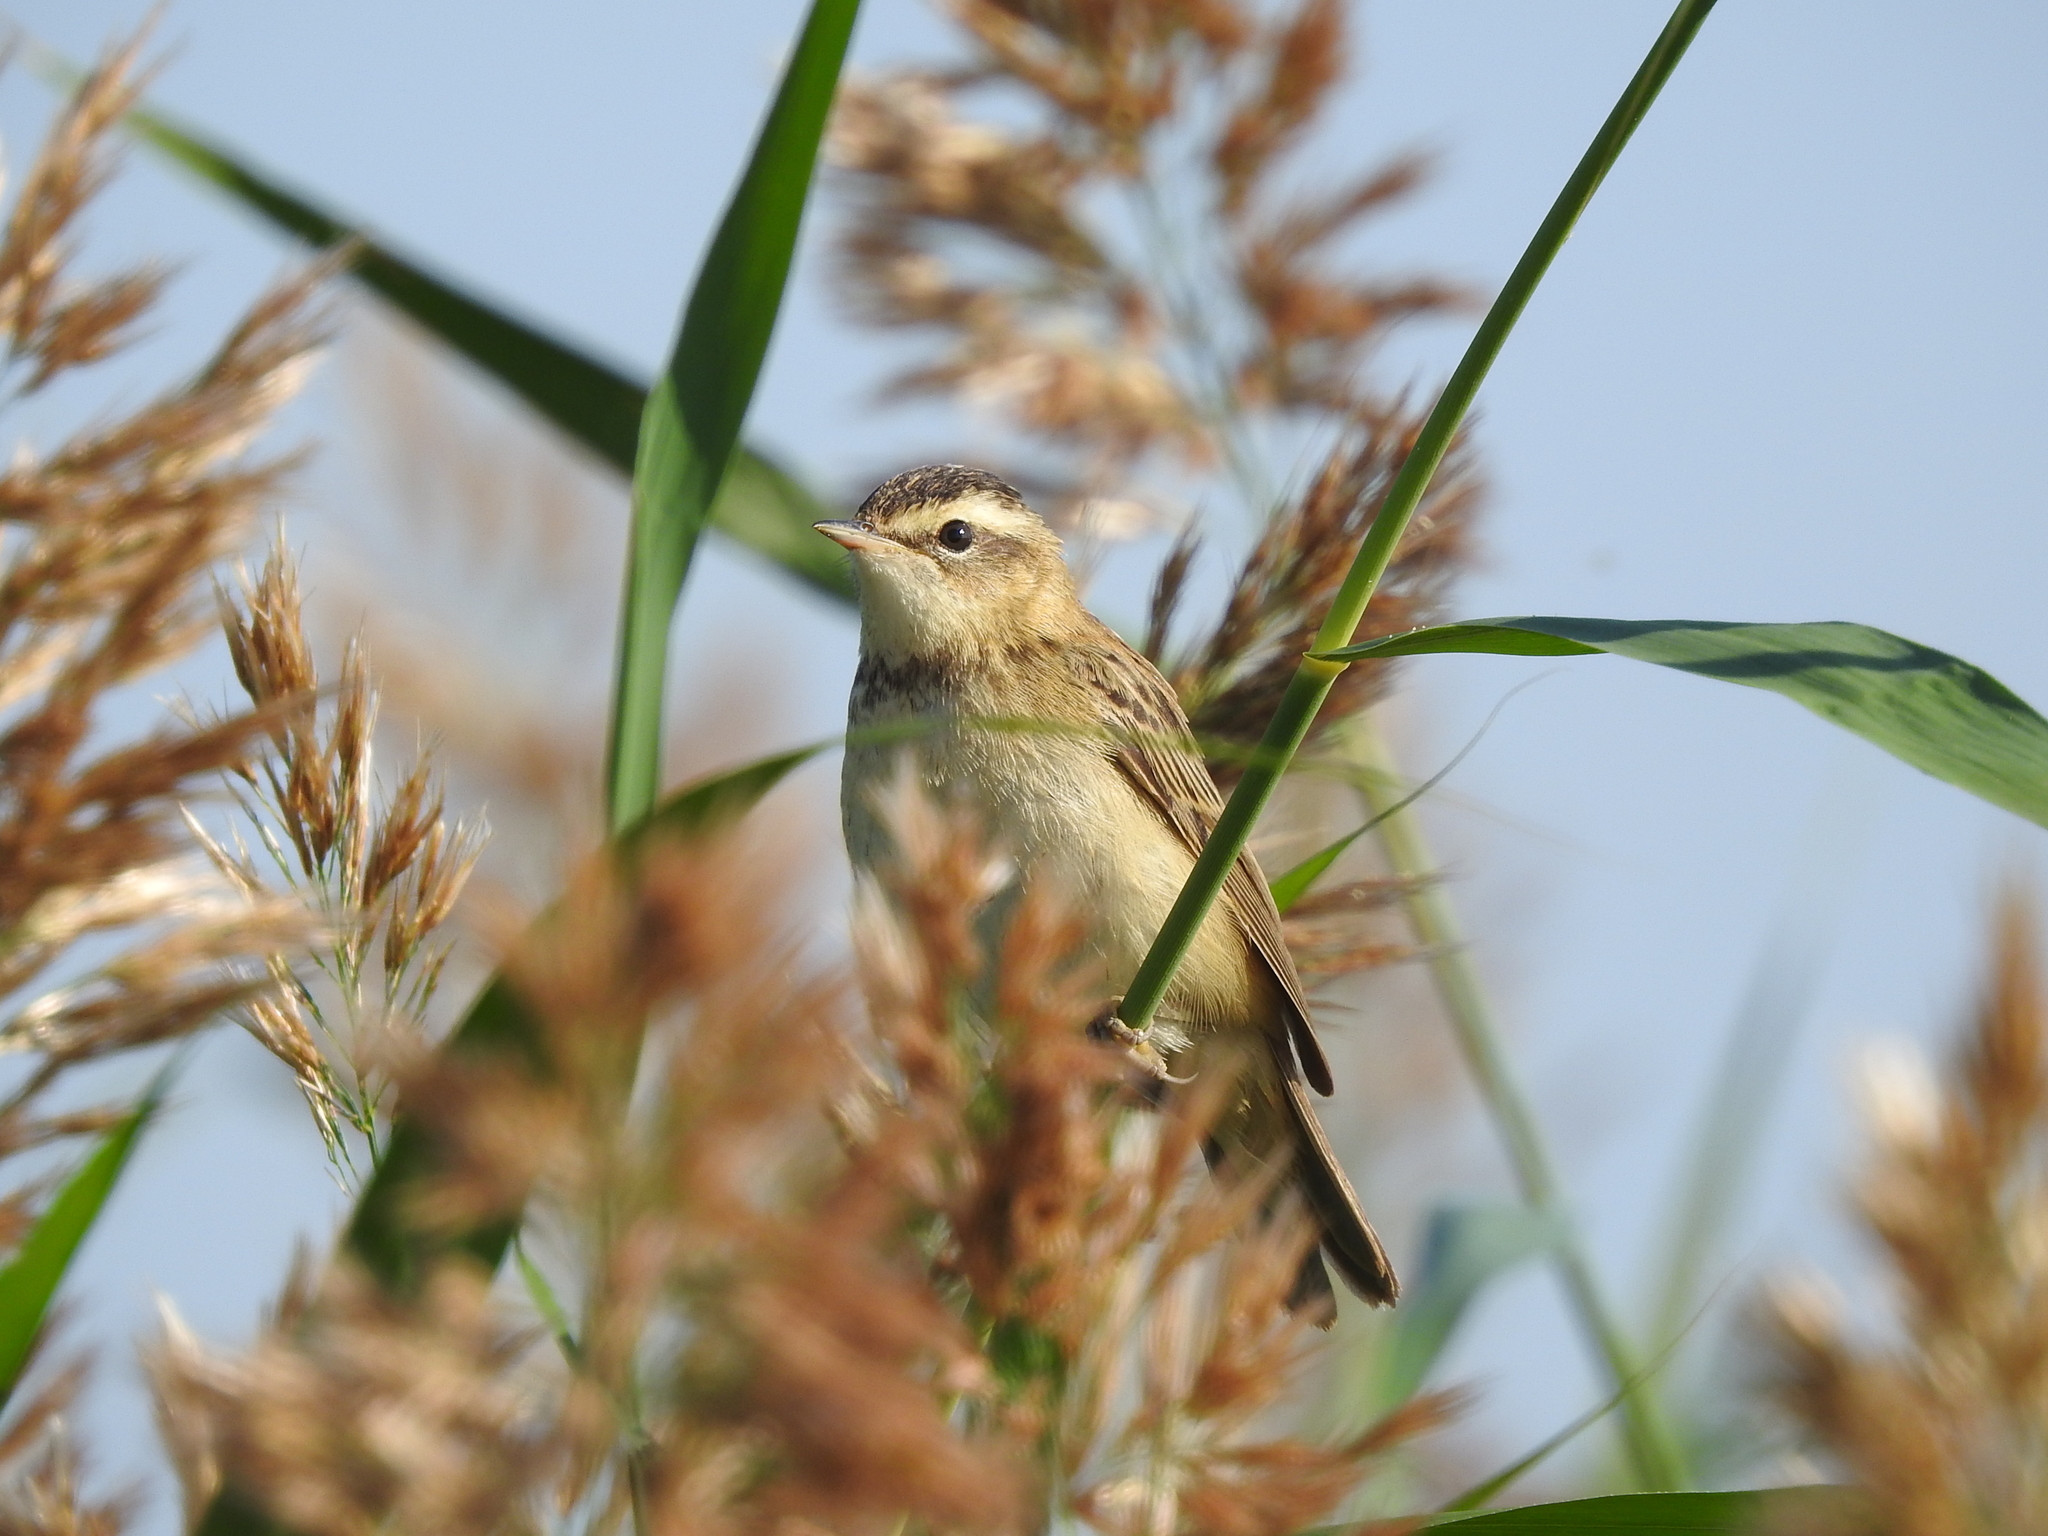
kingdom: Animalia
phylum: Chordata
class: Aves
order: Passeriformes
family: Acrocephalidae
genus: Acrocephalus
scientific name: Acrocephalus schoenobaenus
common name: Sedge warbler
